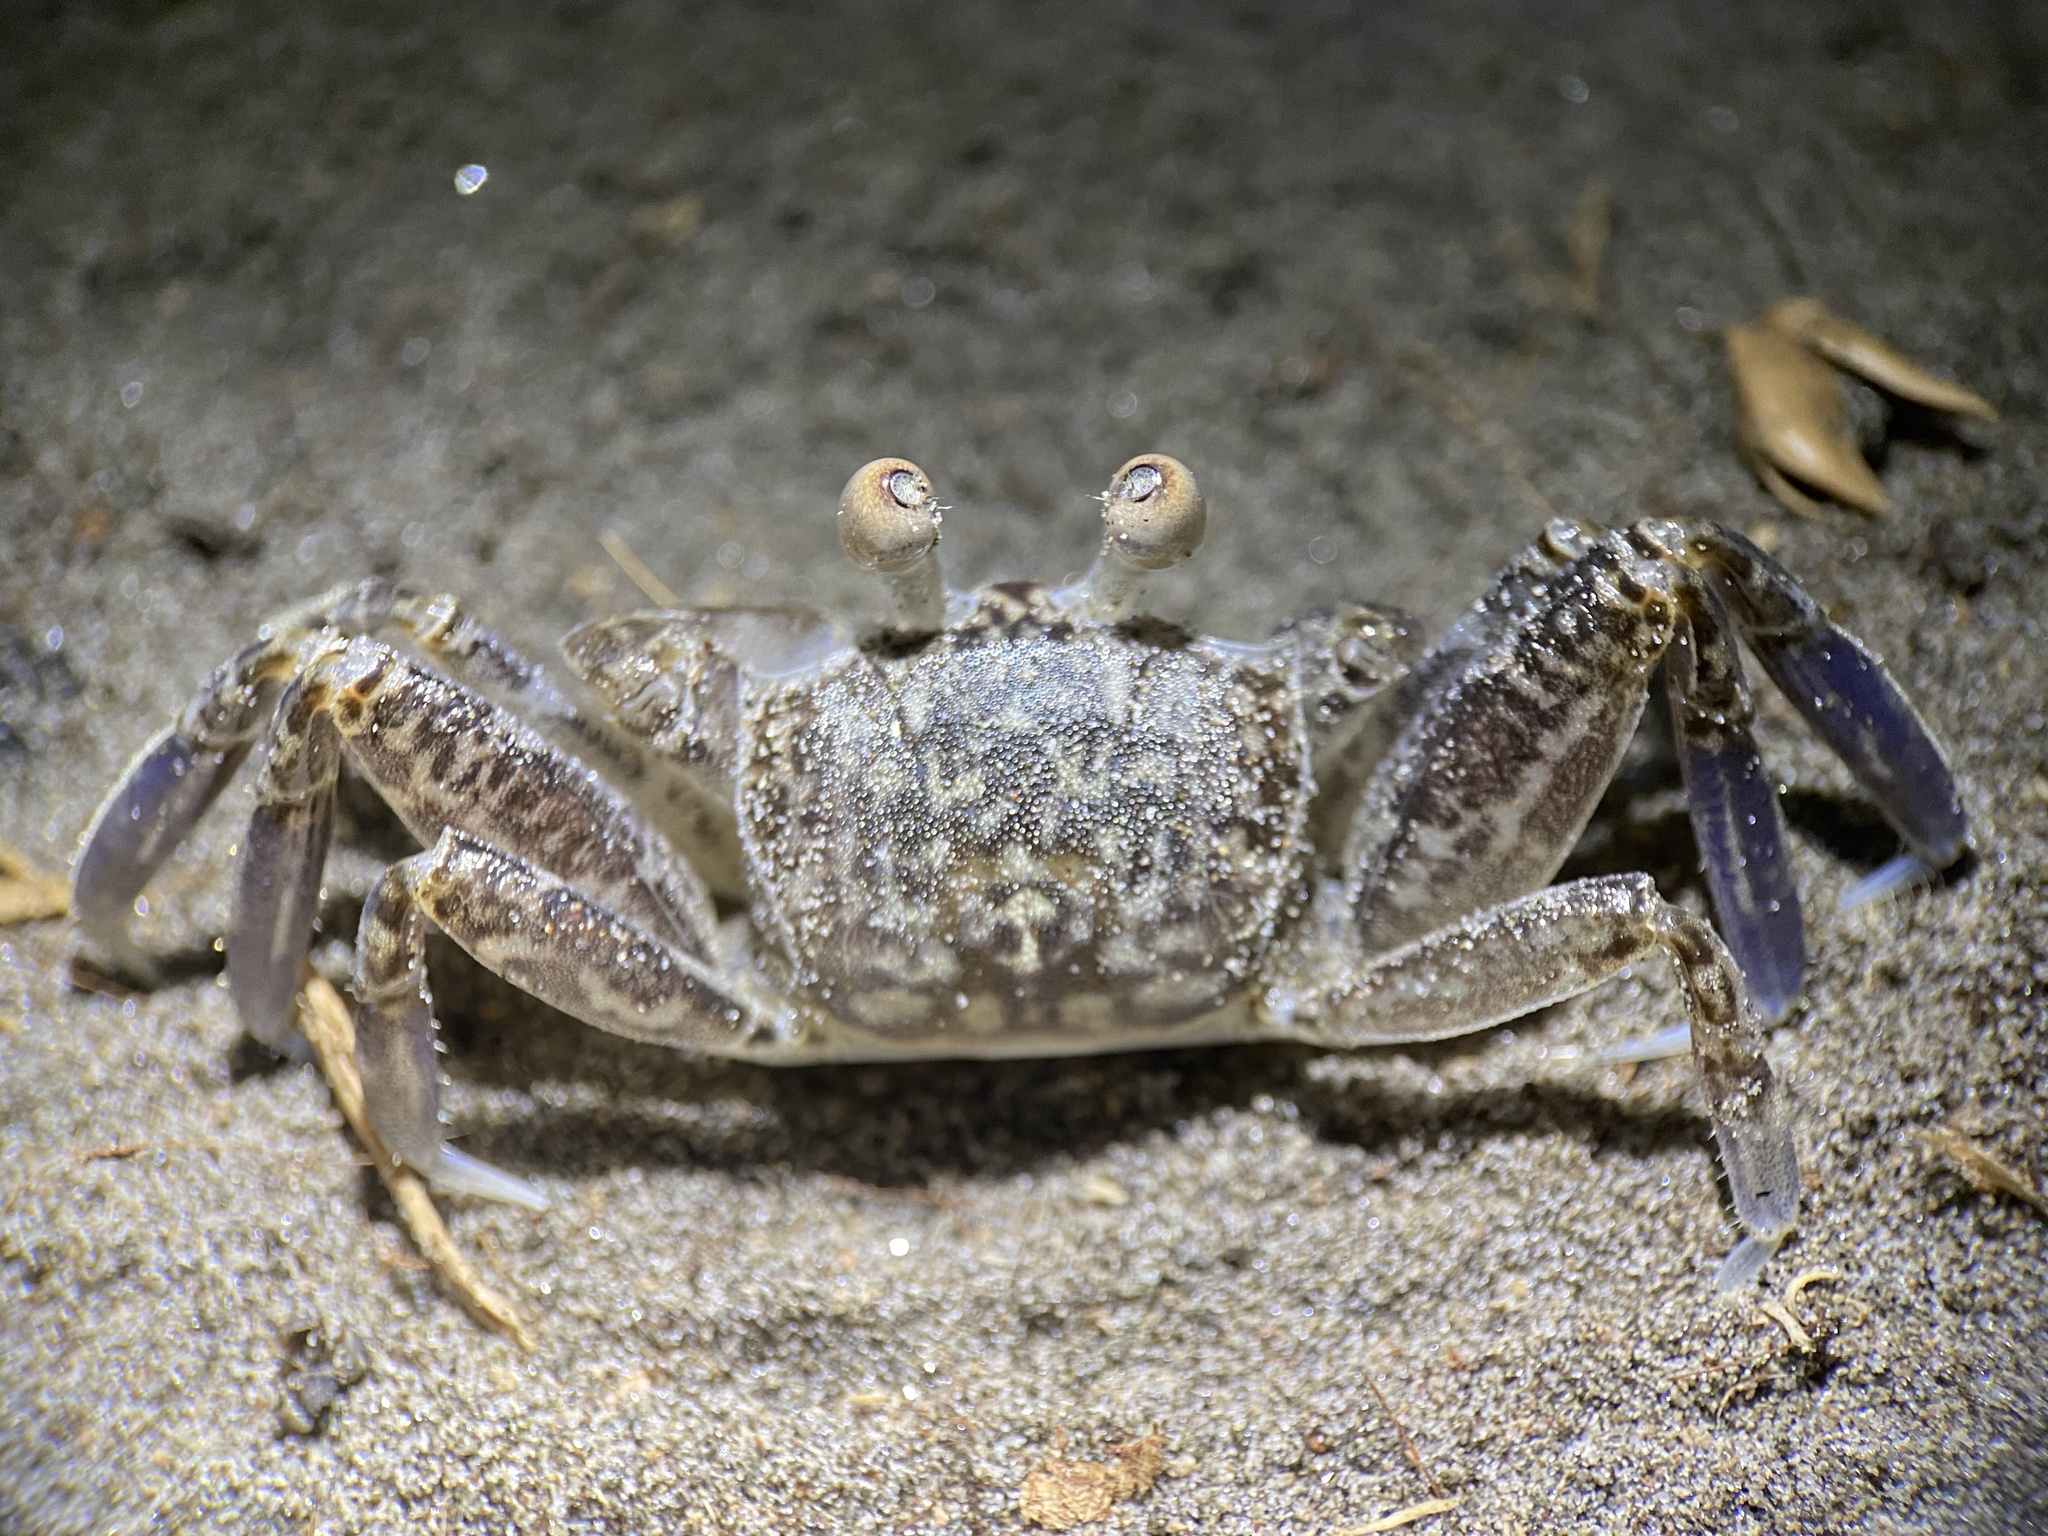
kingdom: Animalia
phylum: Arthropoda
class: Malacostraca
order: Decapoda
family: Ocypodidae
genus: Ocypode
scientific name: Ocypode occidentalis
